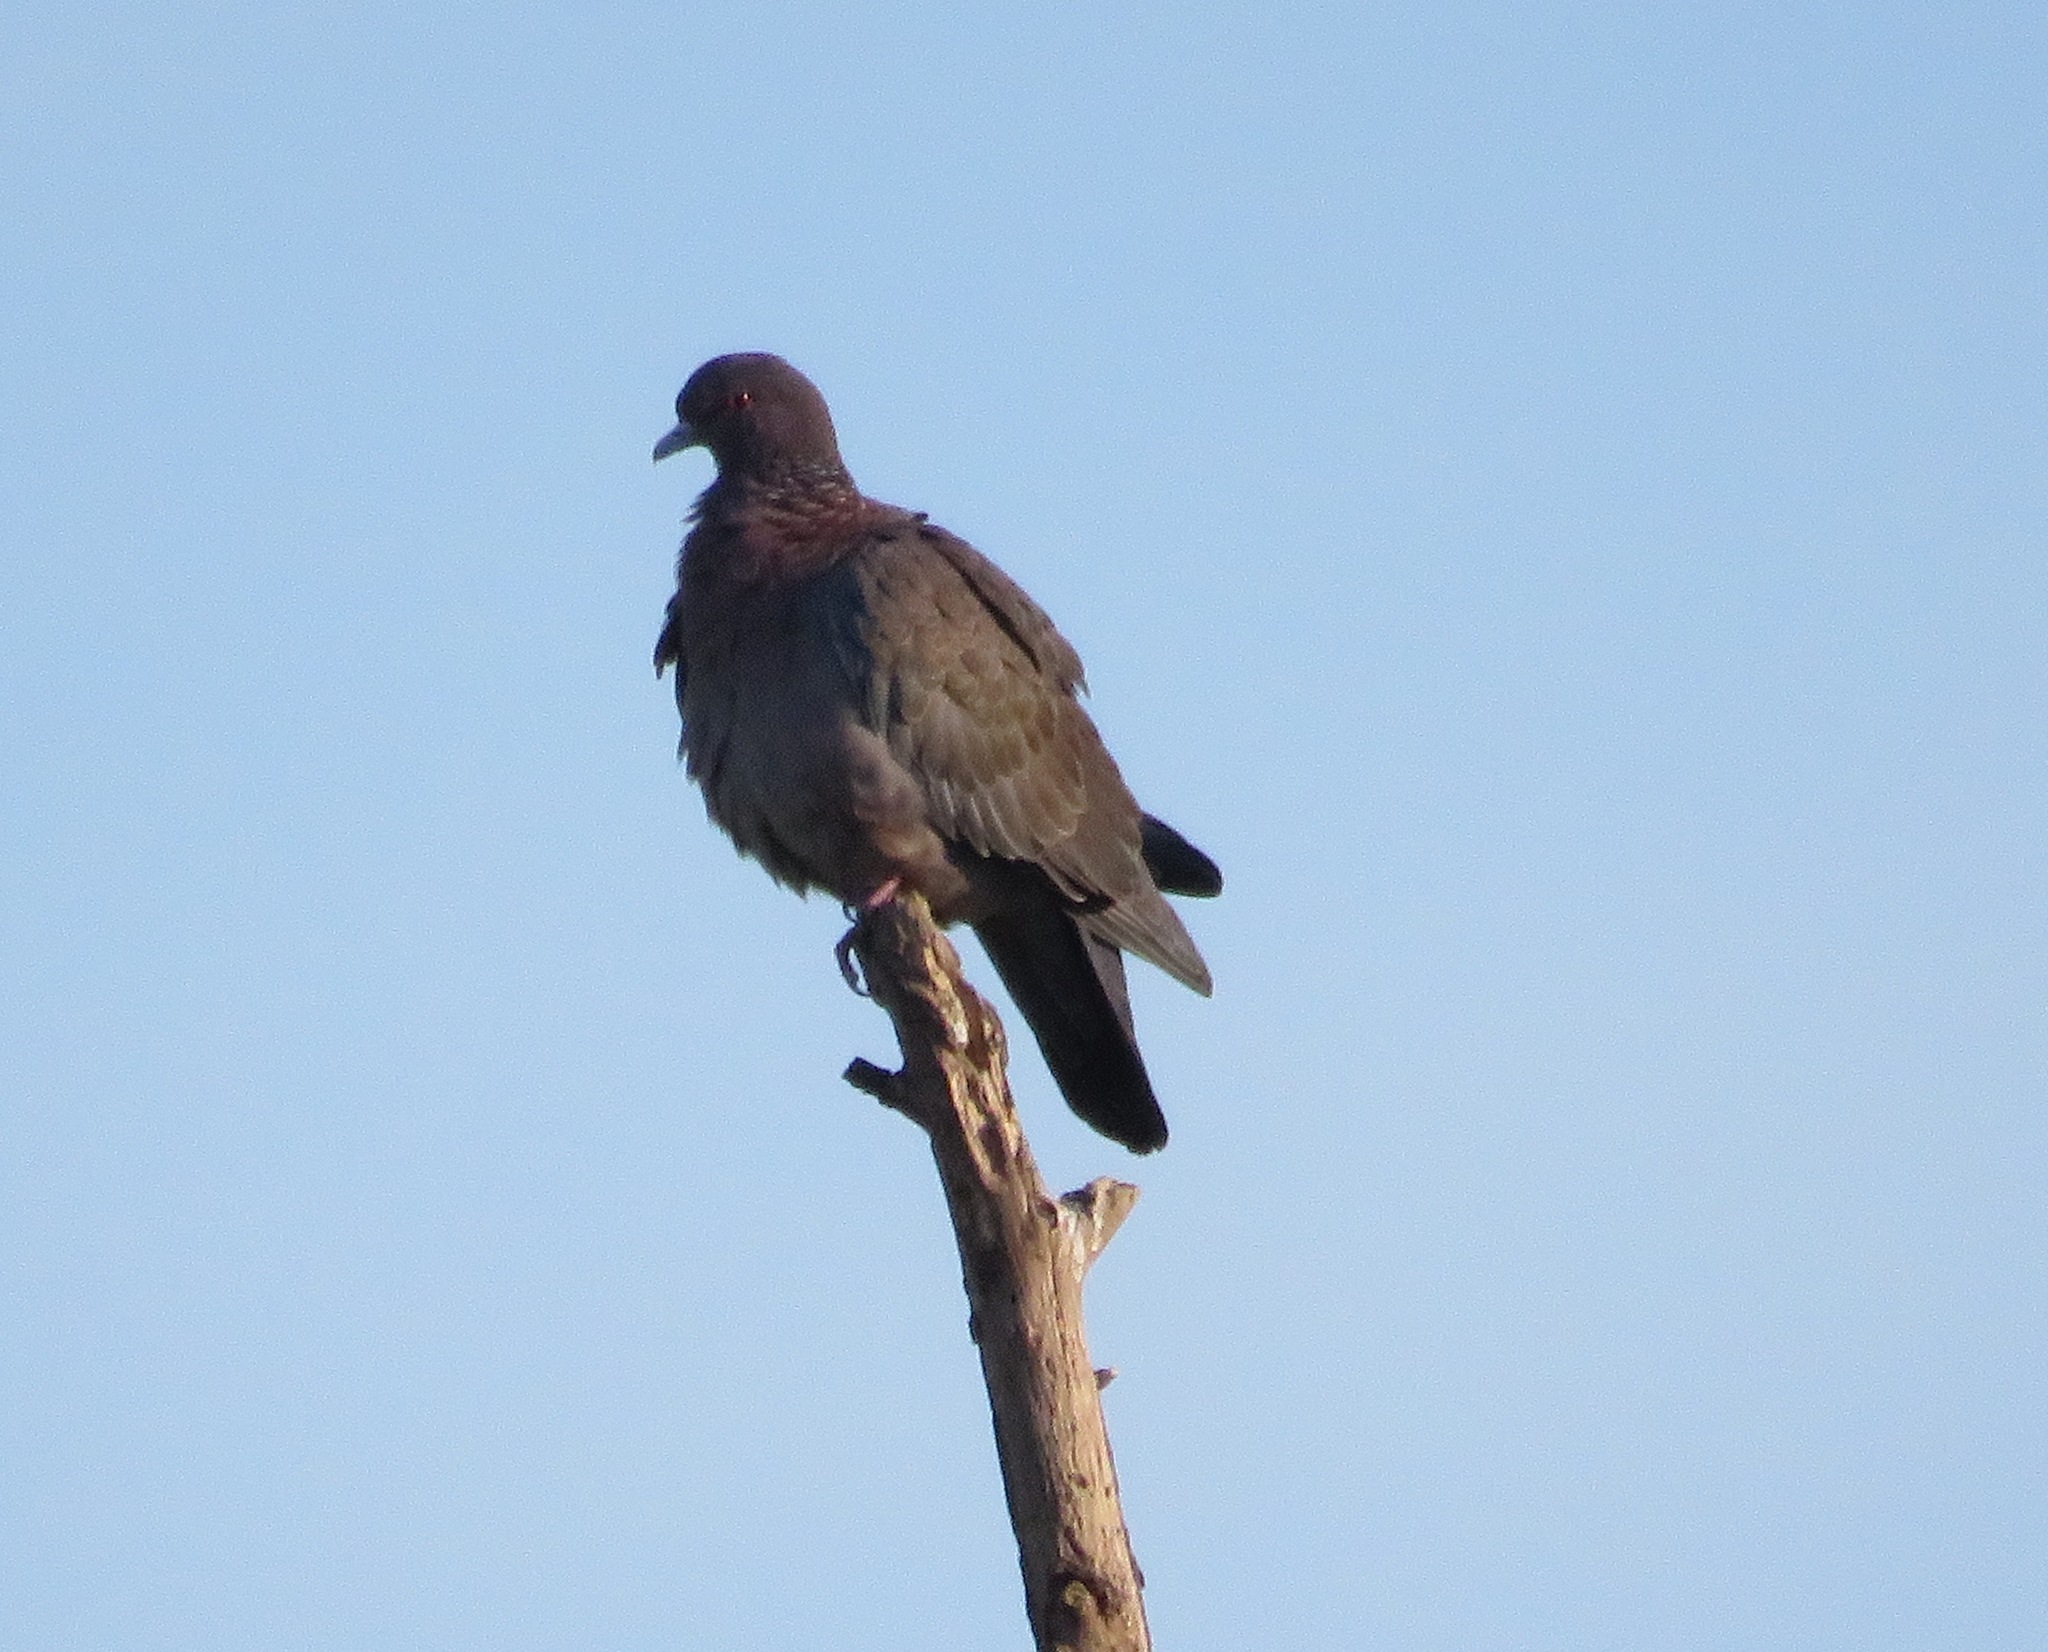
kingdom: Animalia
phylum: Chordata
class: Aves
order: Columbiformes
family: Columbidae
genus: Patagioenas
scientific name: Patagioenas picazuro
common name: Picazuro pigeon
